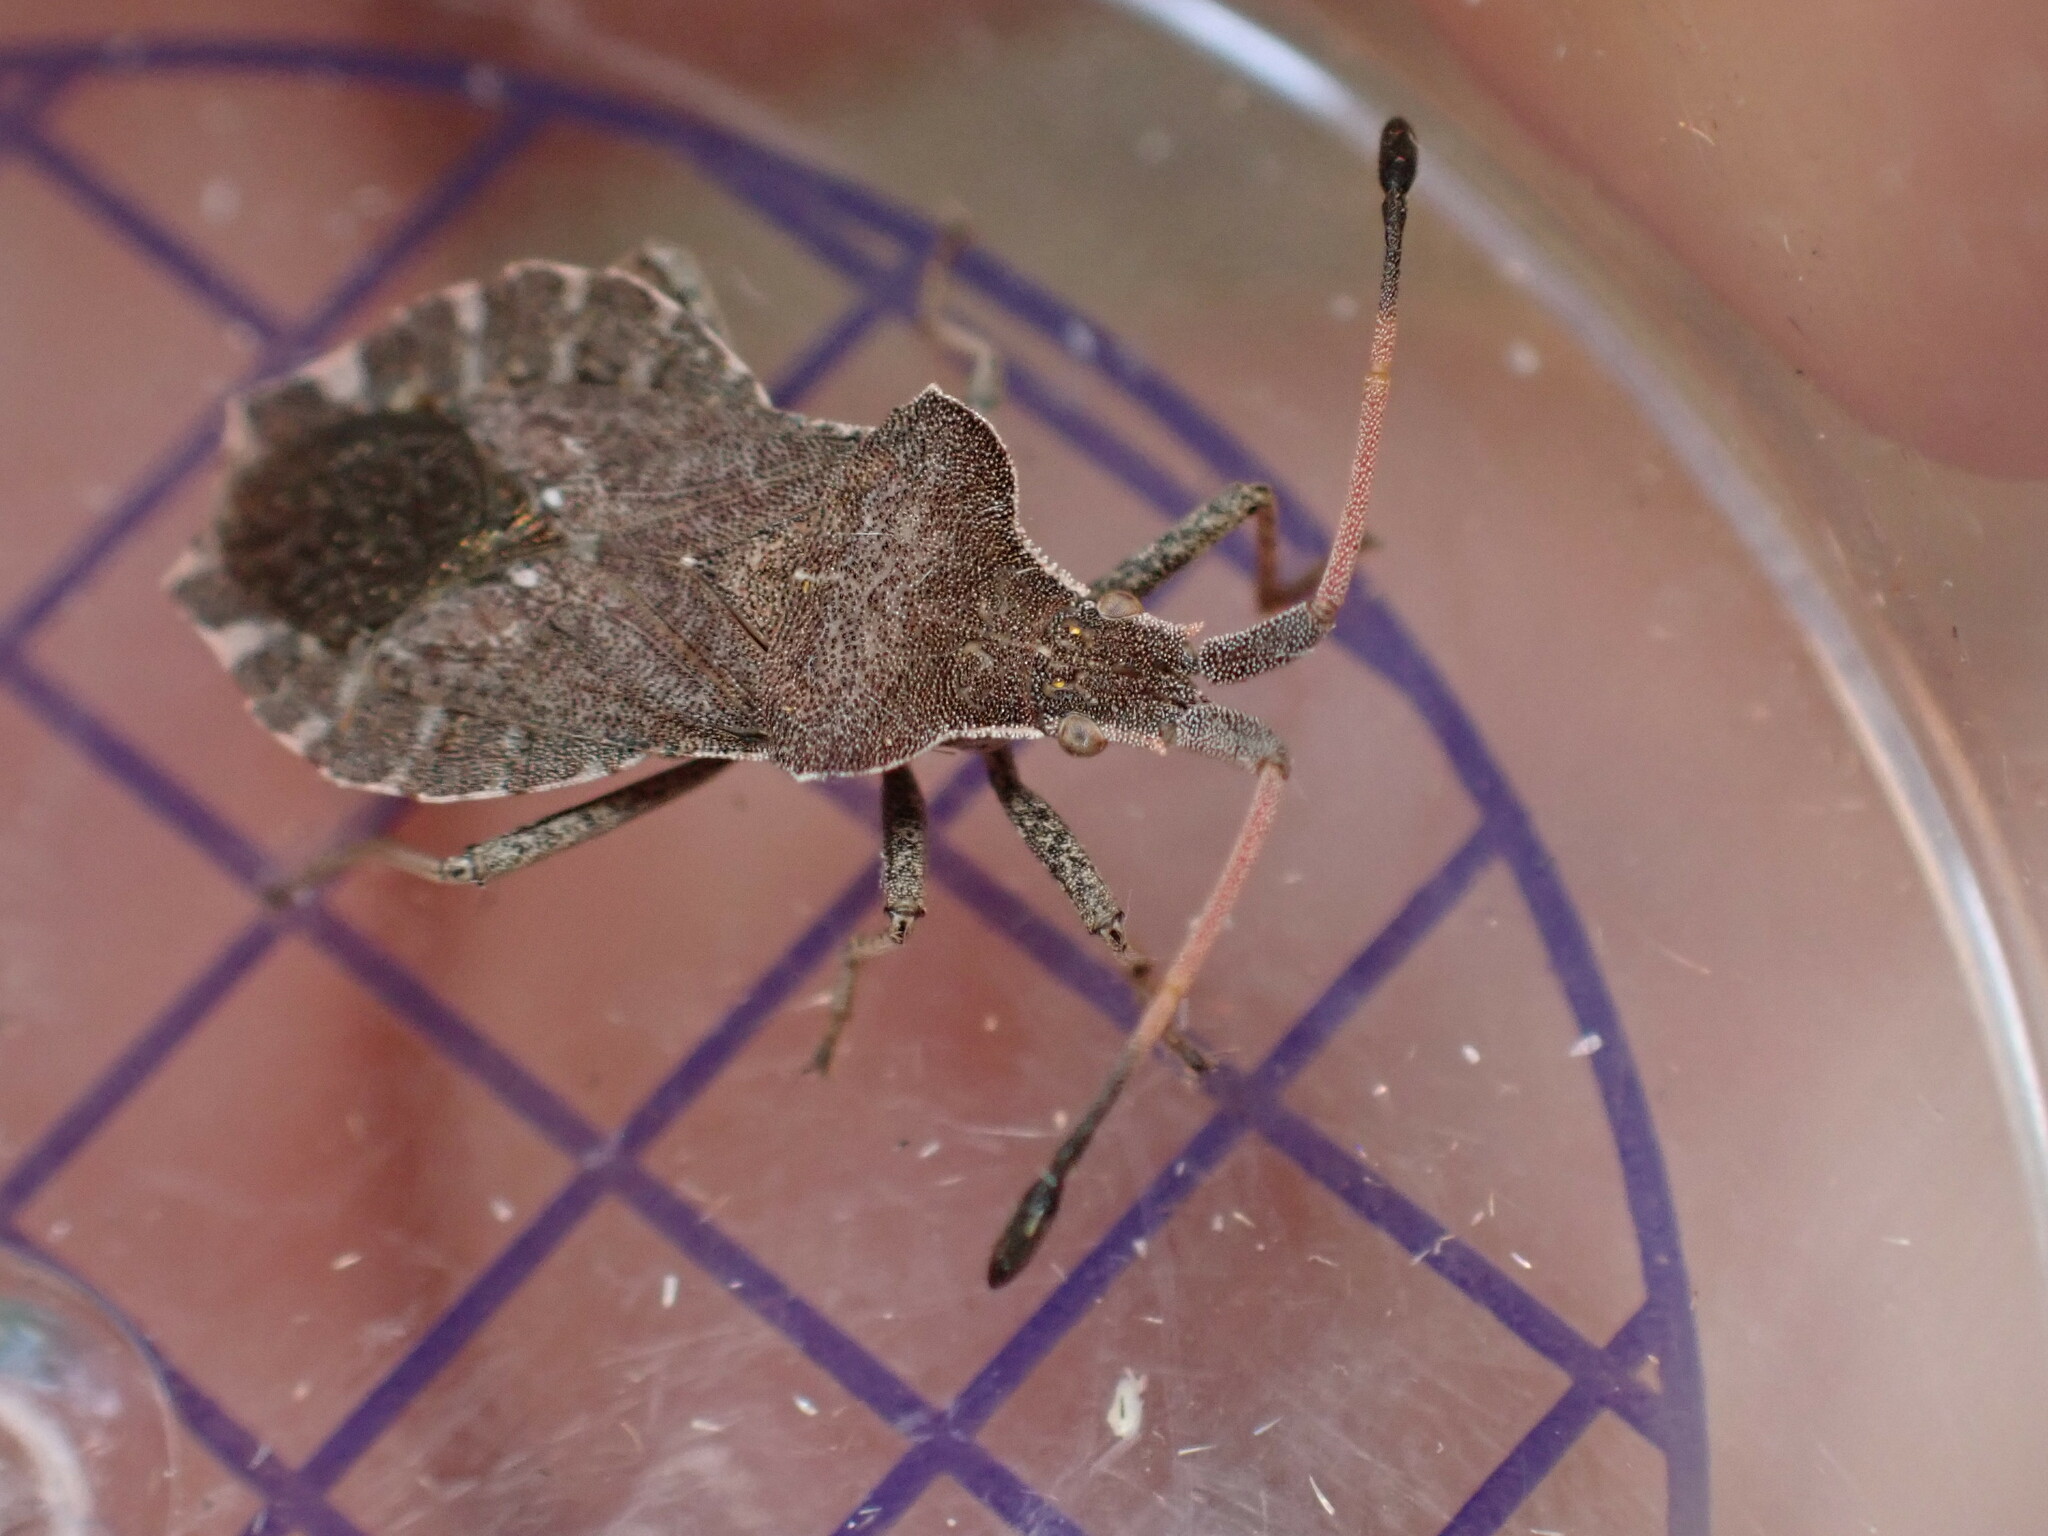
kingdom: Animalia
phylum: Arthropoda
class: Insecta
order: Hemiptera
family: Coreidae
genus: Enoplops
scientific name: Enoplops scapha
